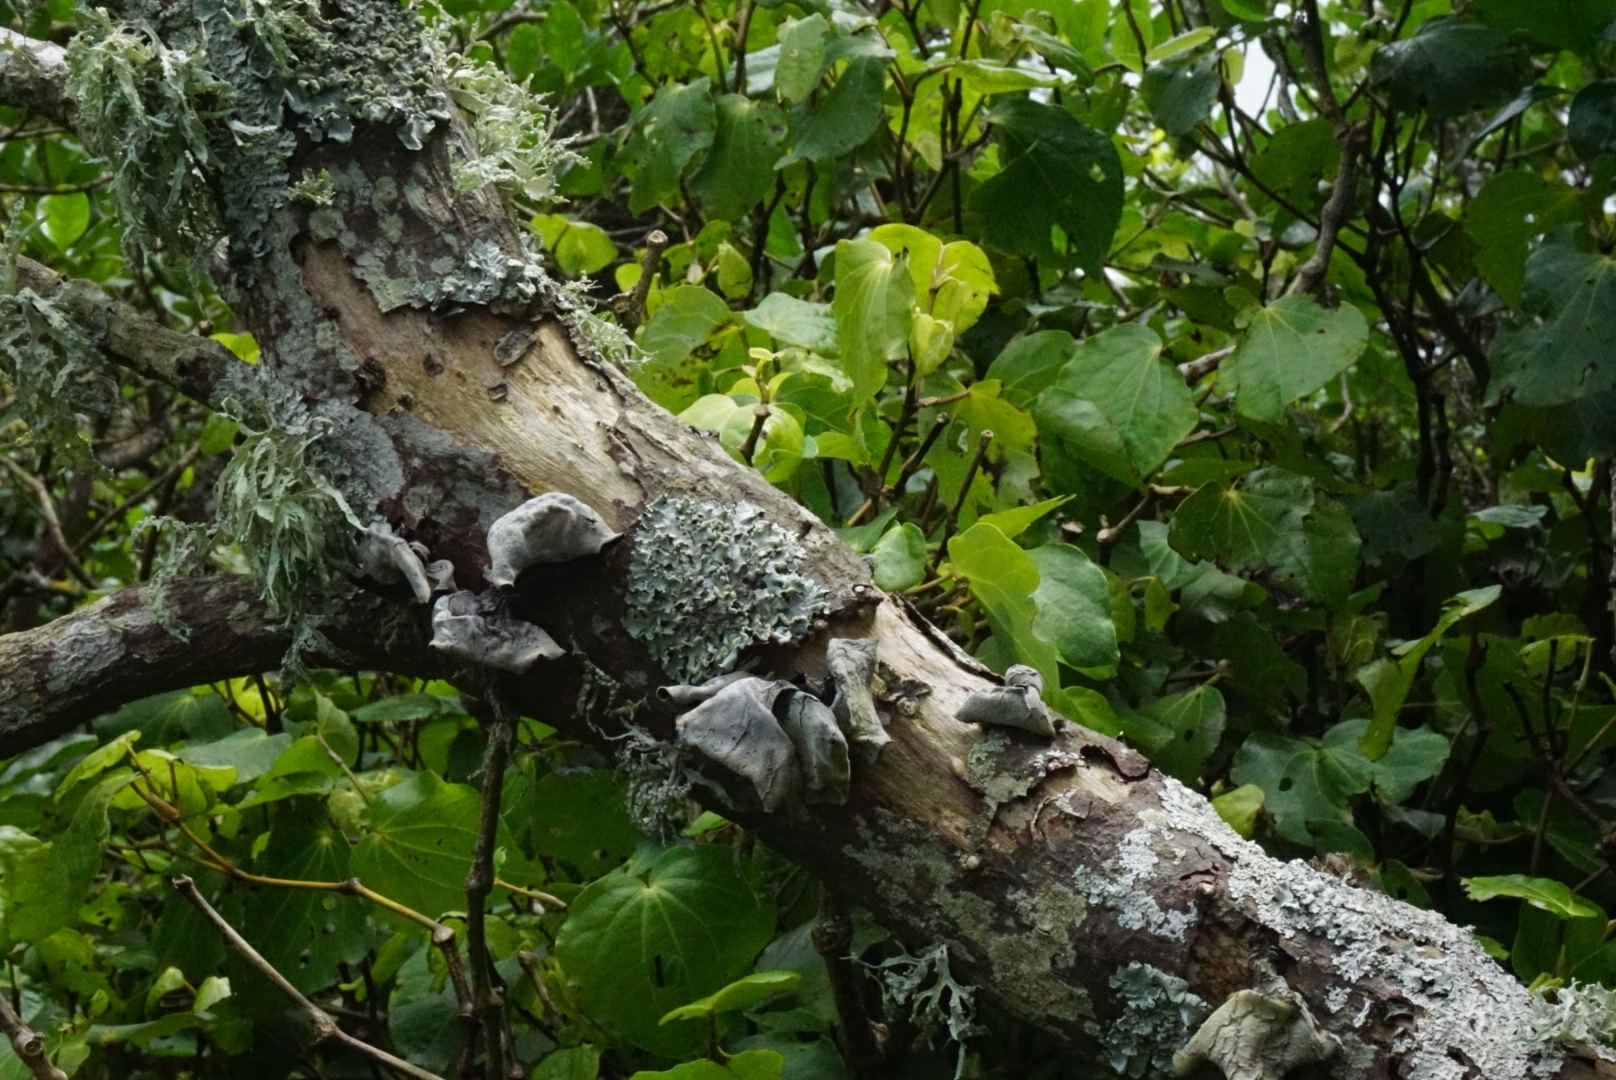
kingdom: Fungi
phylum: Basidiomycota
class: Agaricomycetes
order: Auriculariales
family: Auriculariaceae
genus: Auricularia
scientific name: Auricularia cornea
